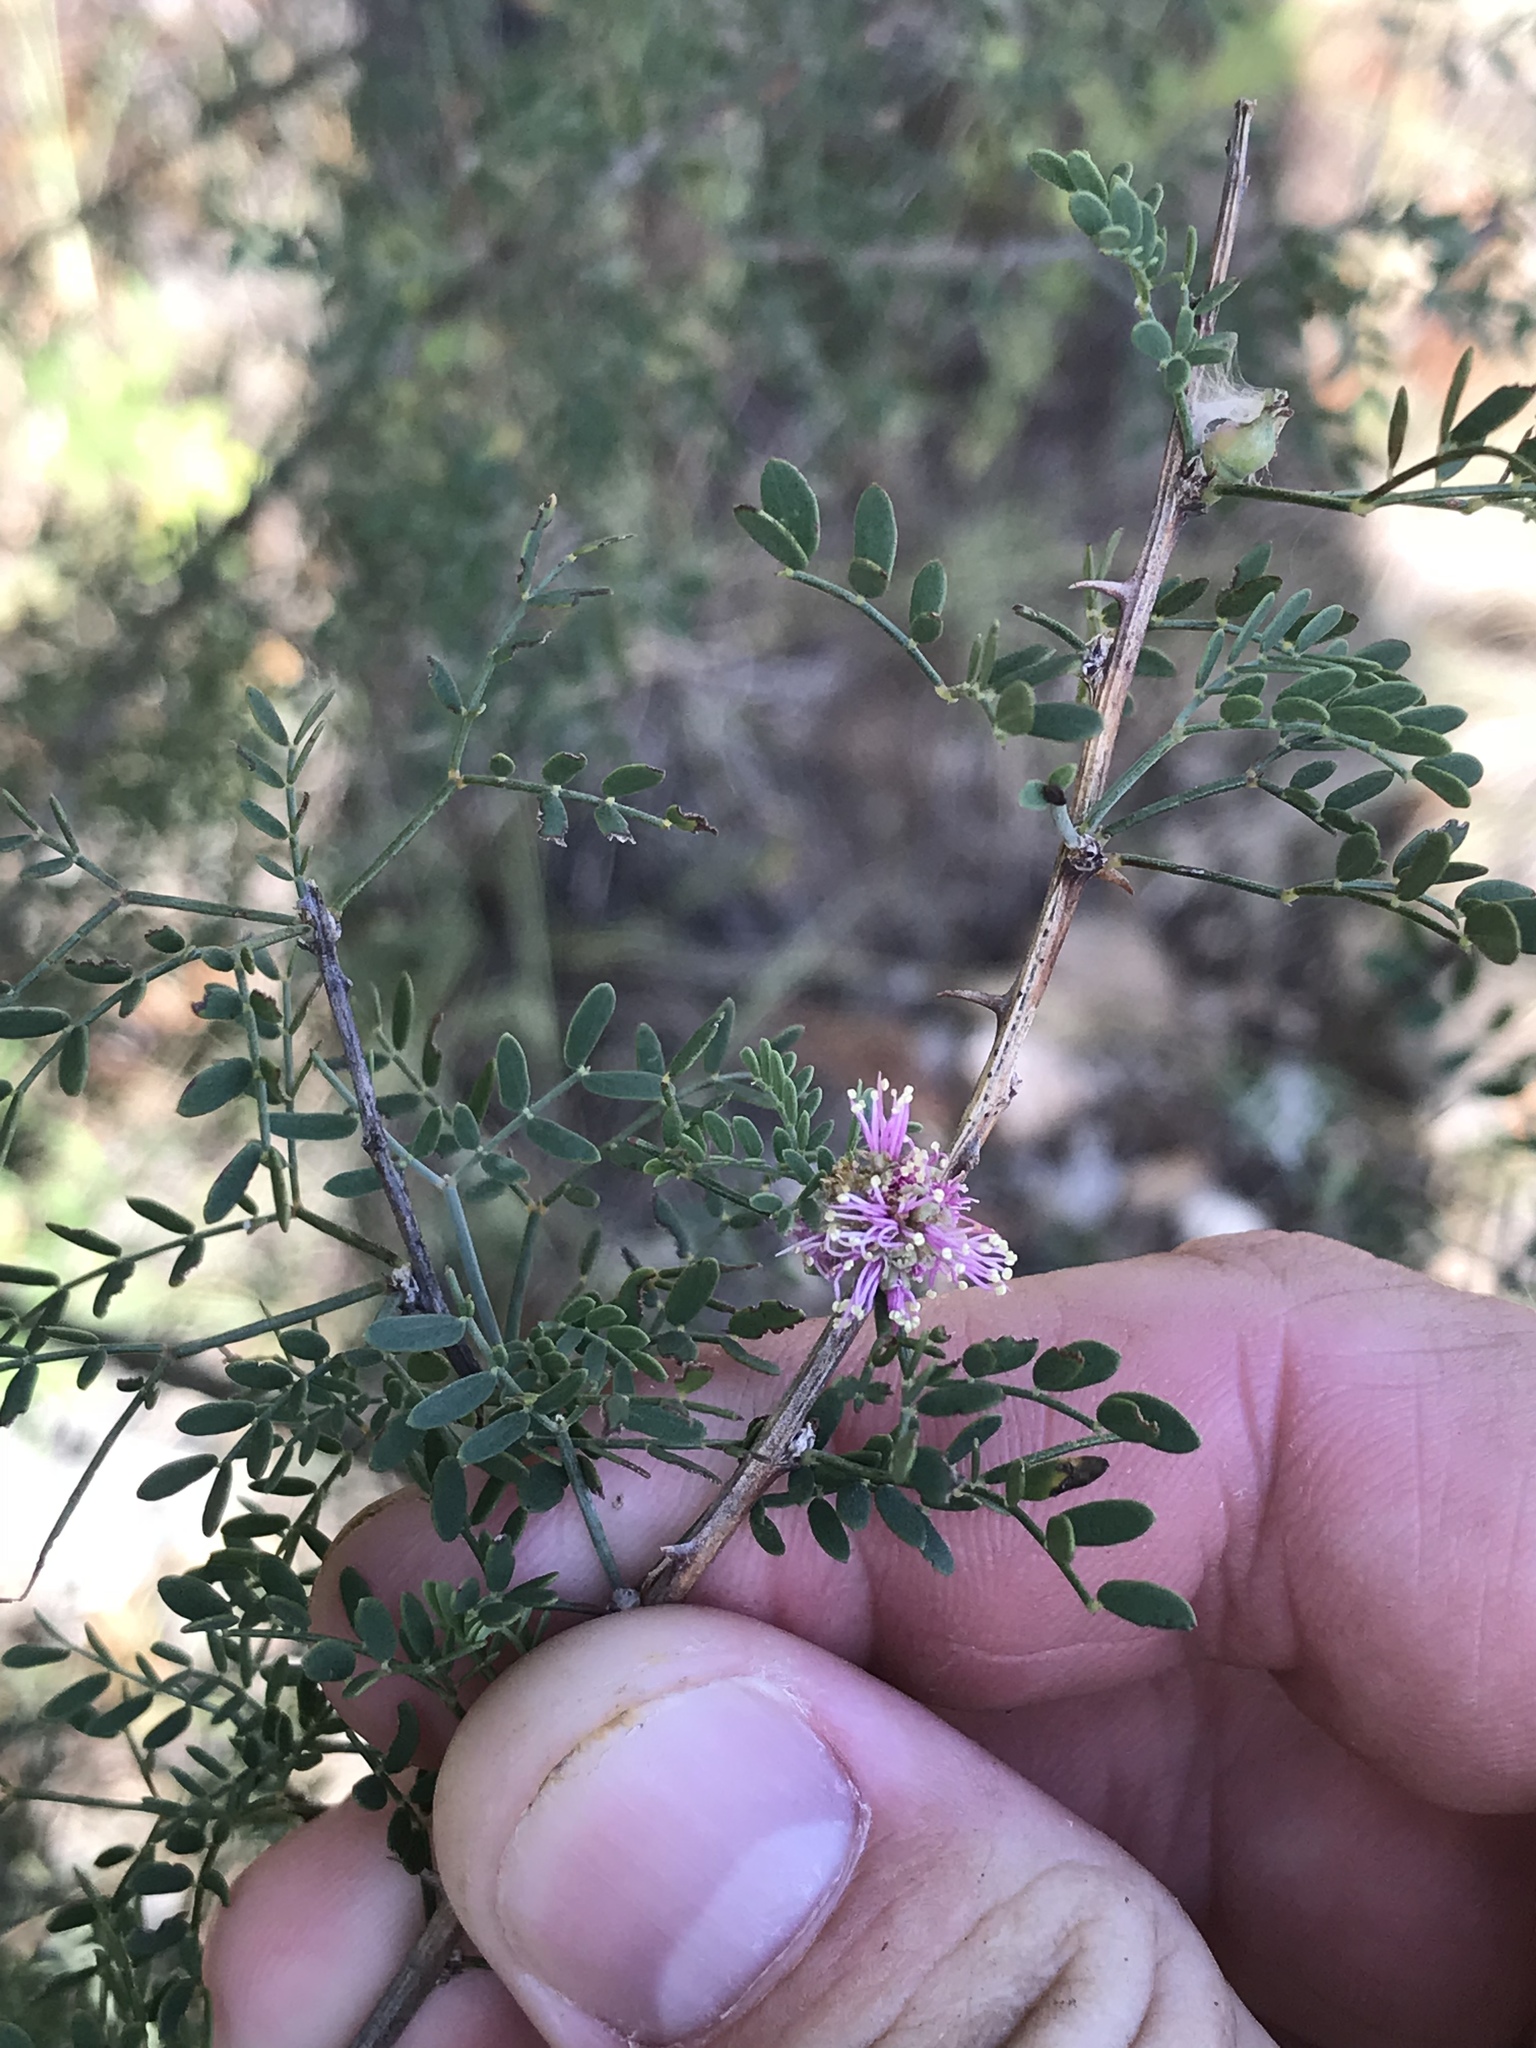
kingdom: Plantae
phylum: Tracheophyta
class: Magnoliopsida
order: Fabales
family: Fabaceae
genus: Mimosa
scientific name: Mimosa borealis
